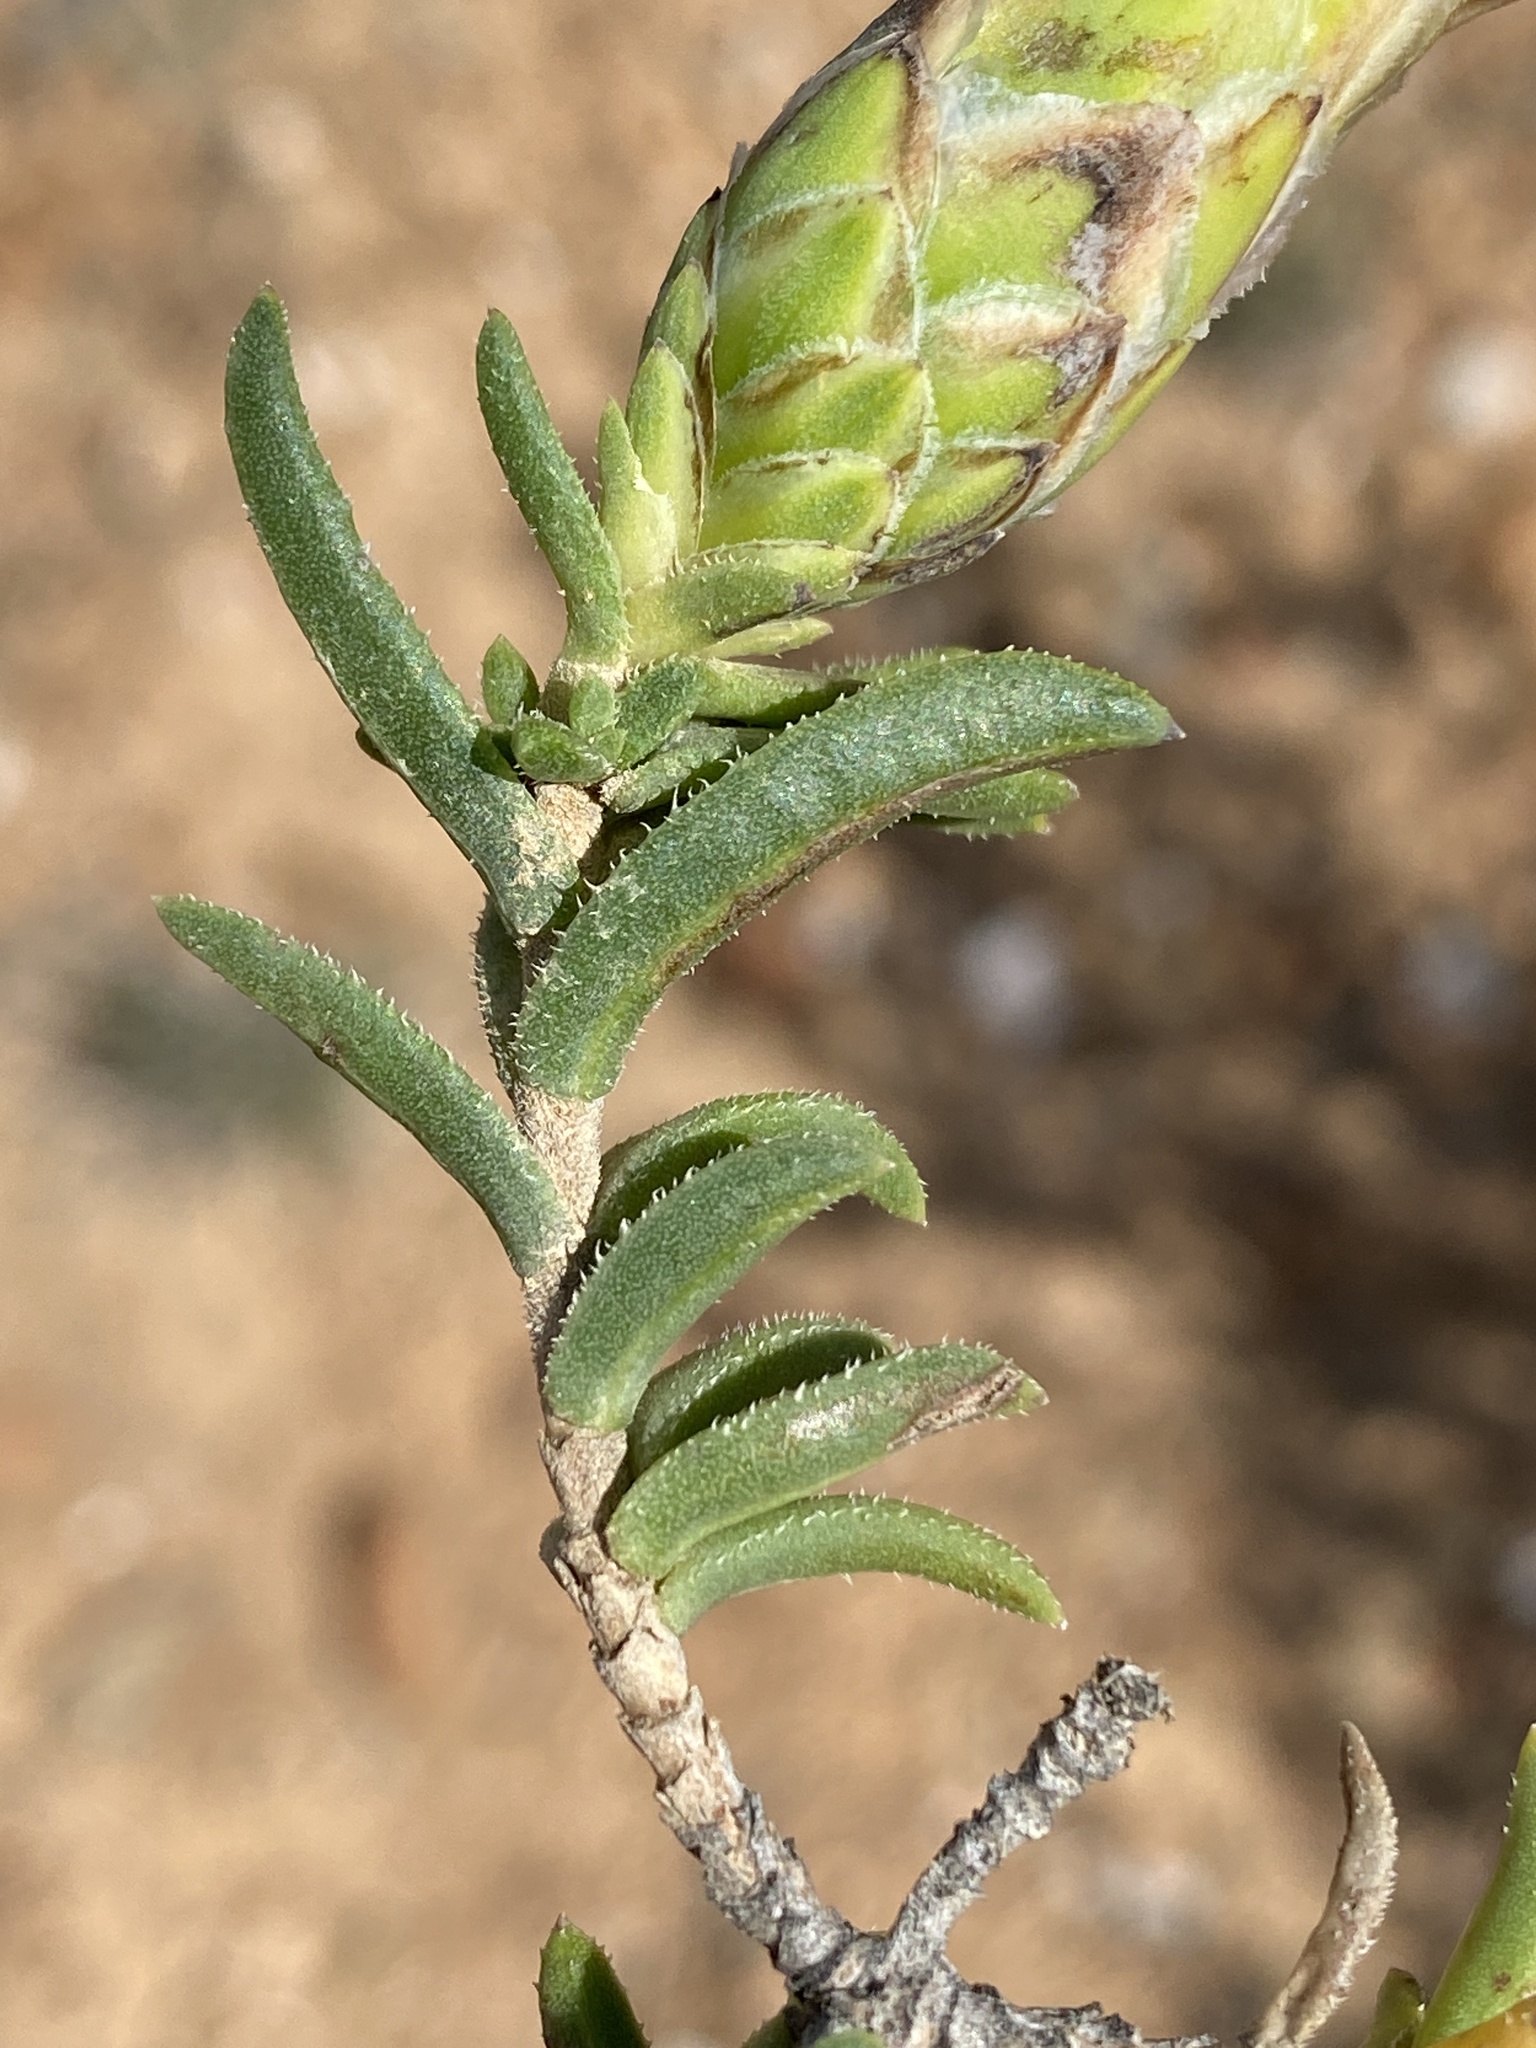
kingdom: Plantae
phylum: Tracheophyta
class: Magnoliopsida
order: Asterales
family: Asteraceae
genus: Pteronia
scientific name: Pteronia hutchinsoniana
